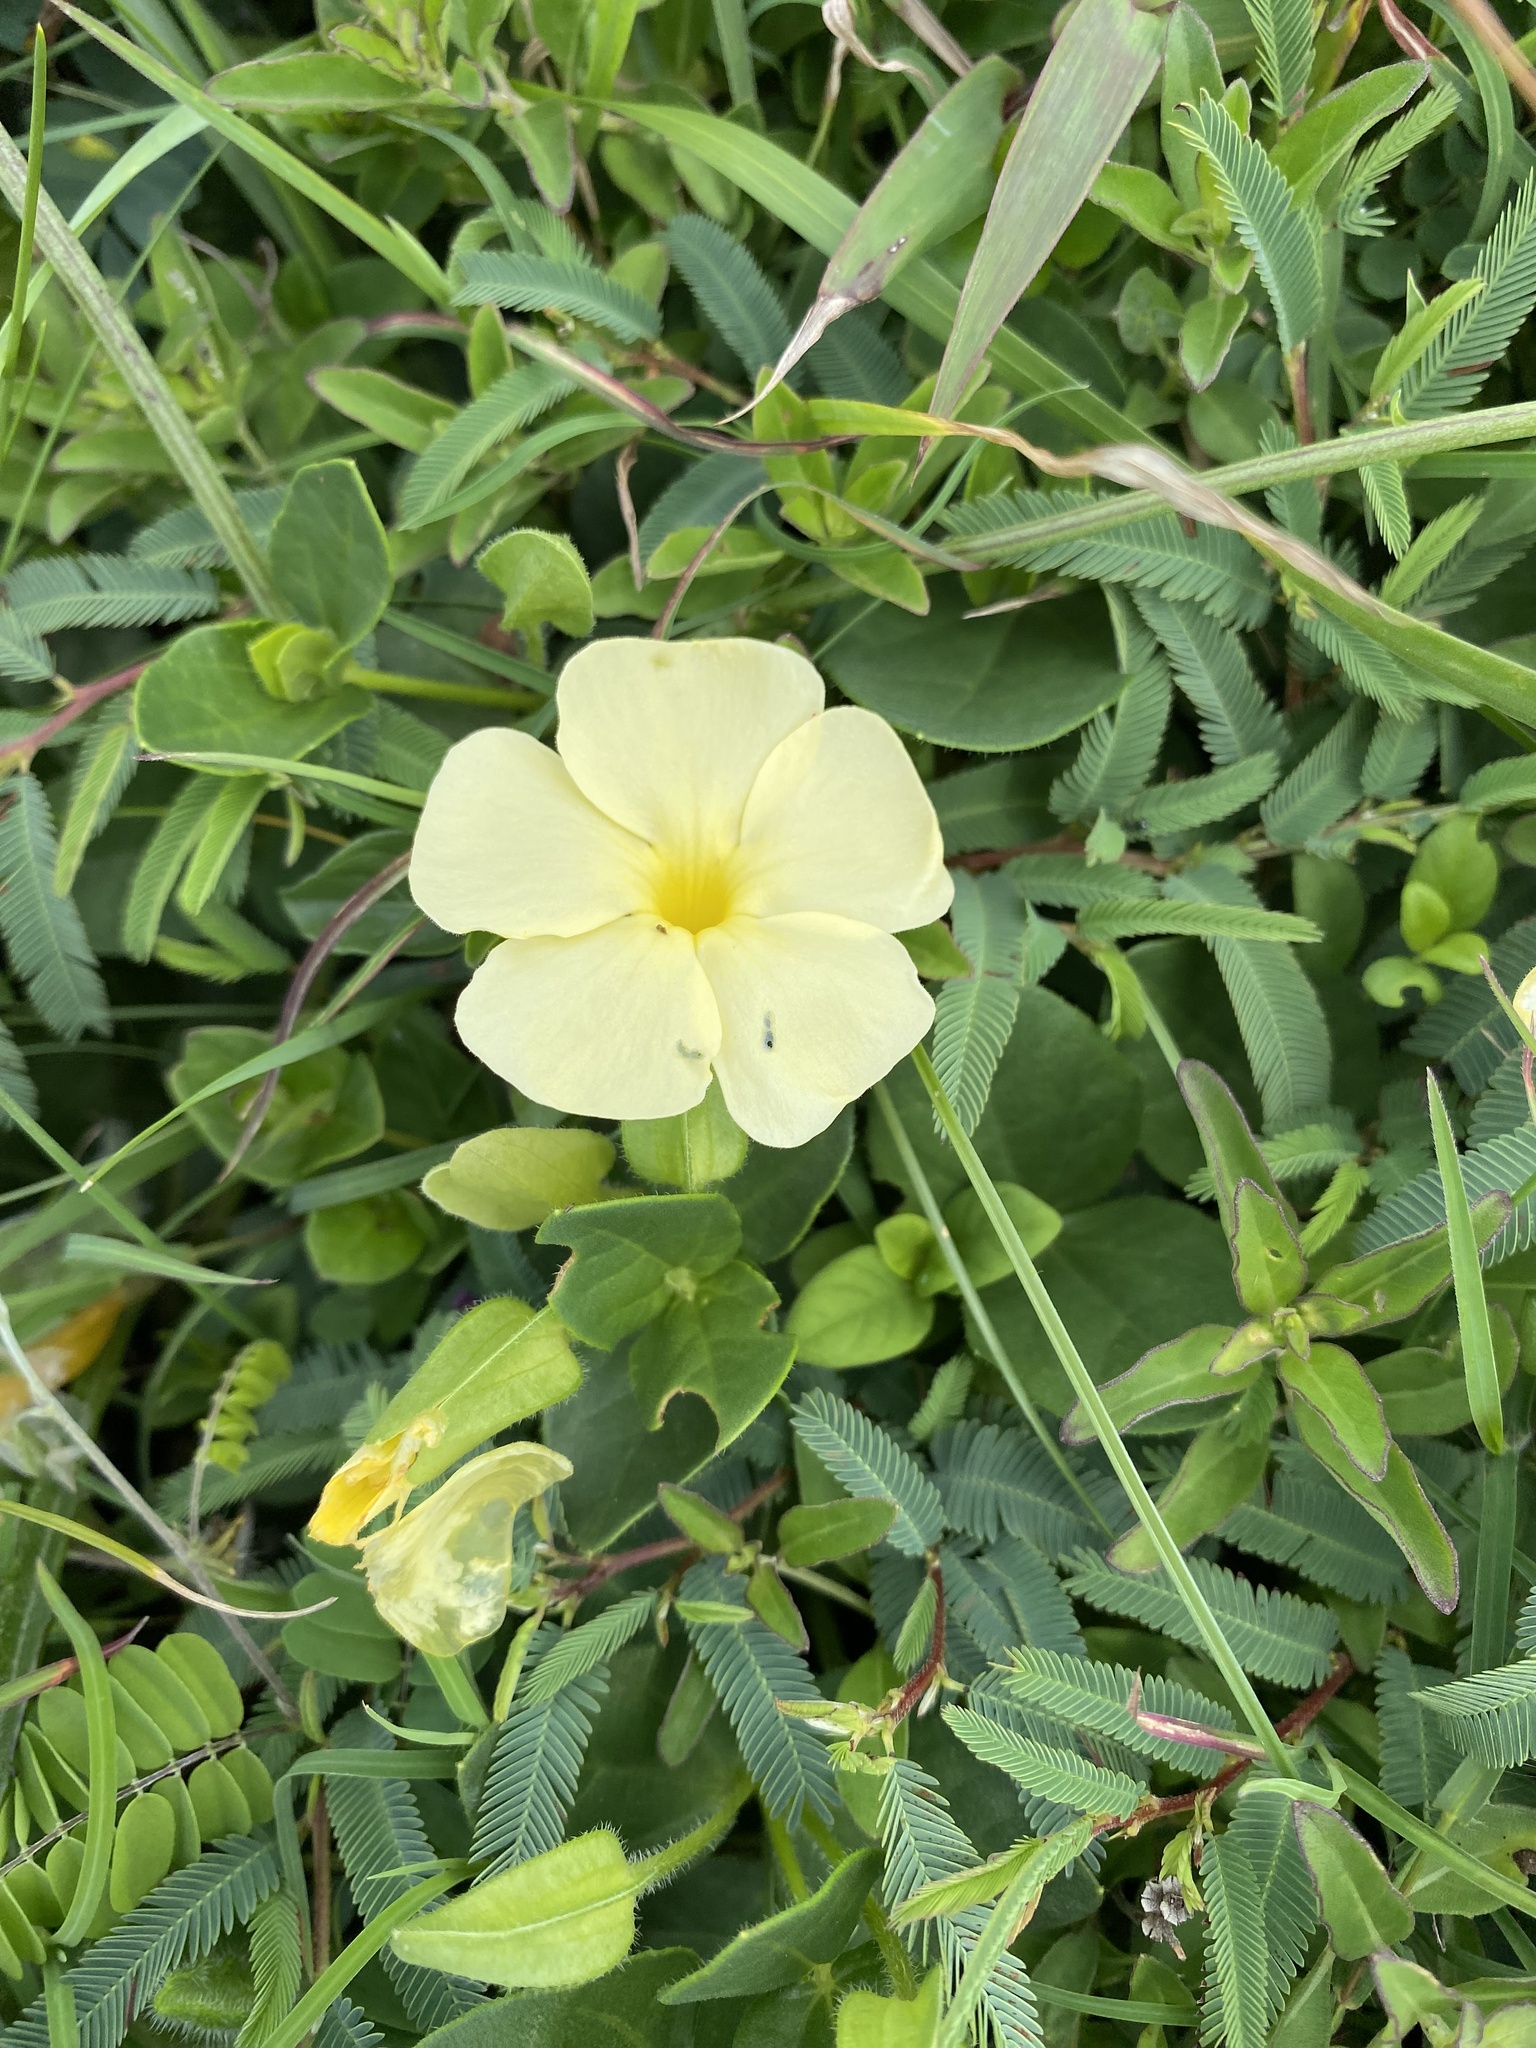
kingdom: Plantae
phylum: Tracheophyta
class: Magnoliopsida
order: Lamiales
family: Acanthaceae
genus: Thunbergia
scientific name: Thunbergia atriplicifolia
